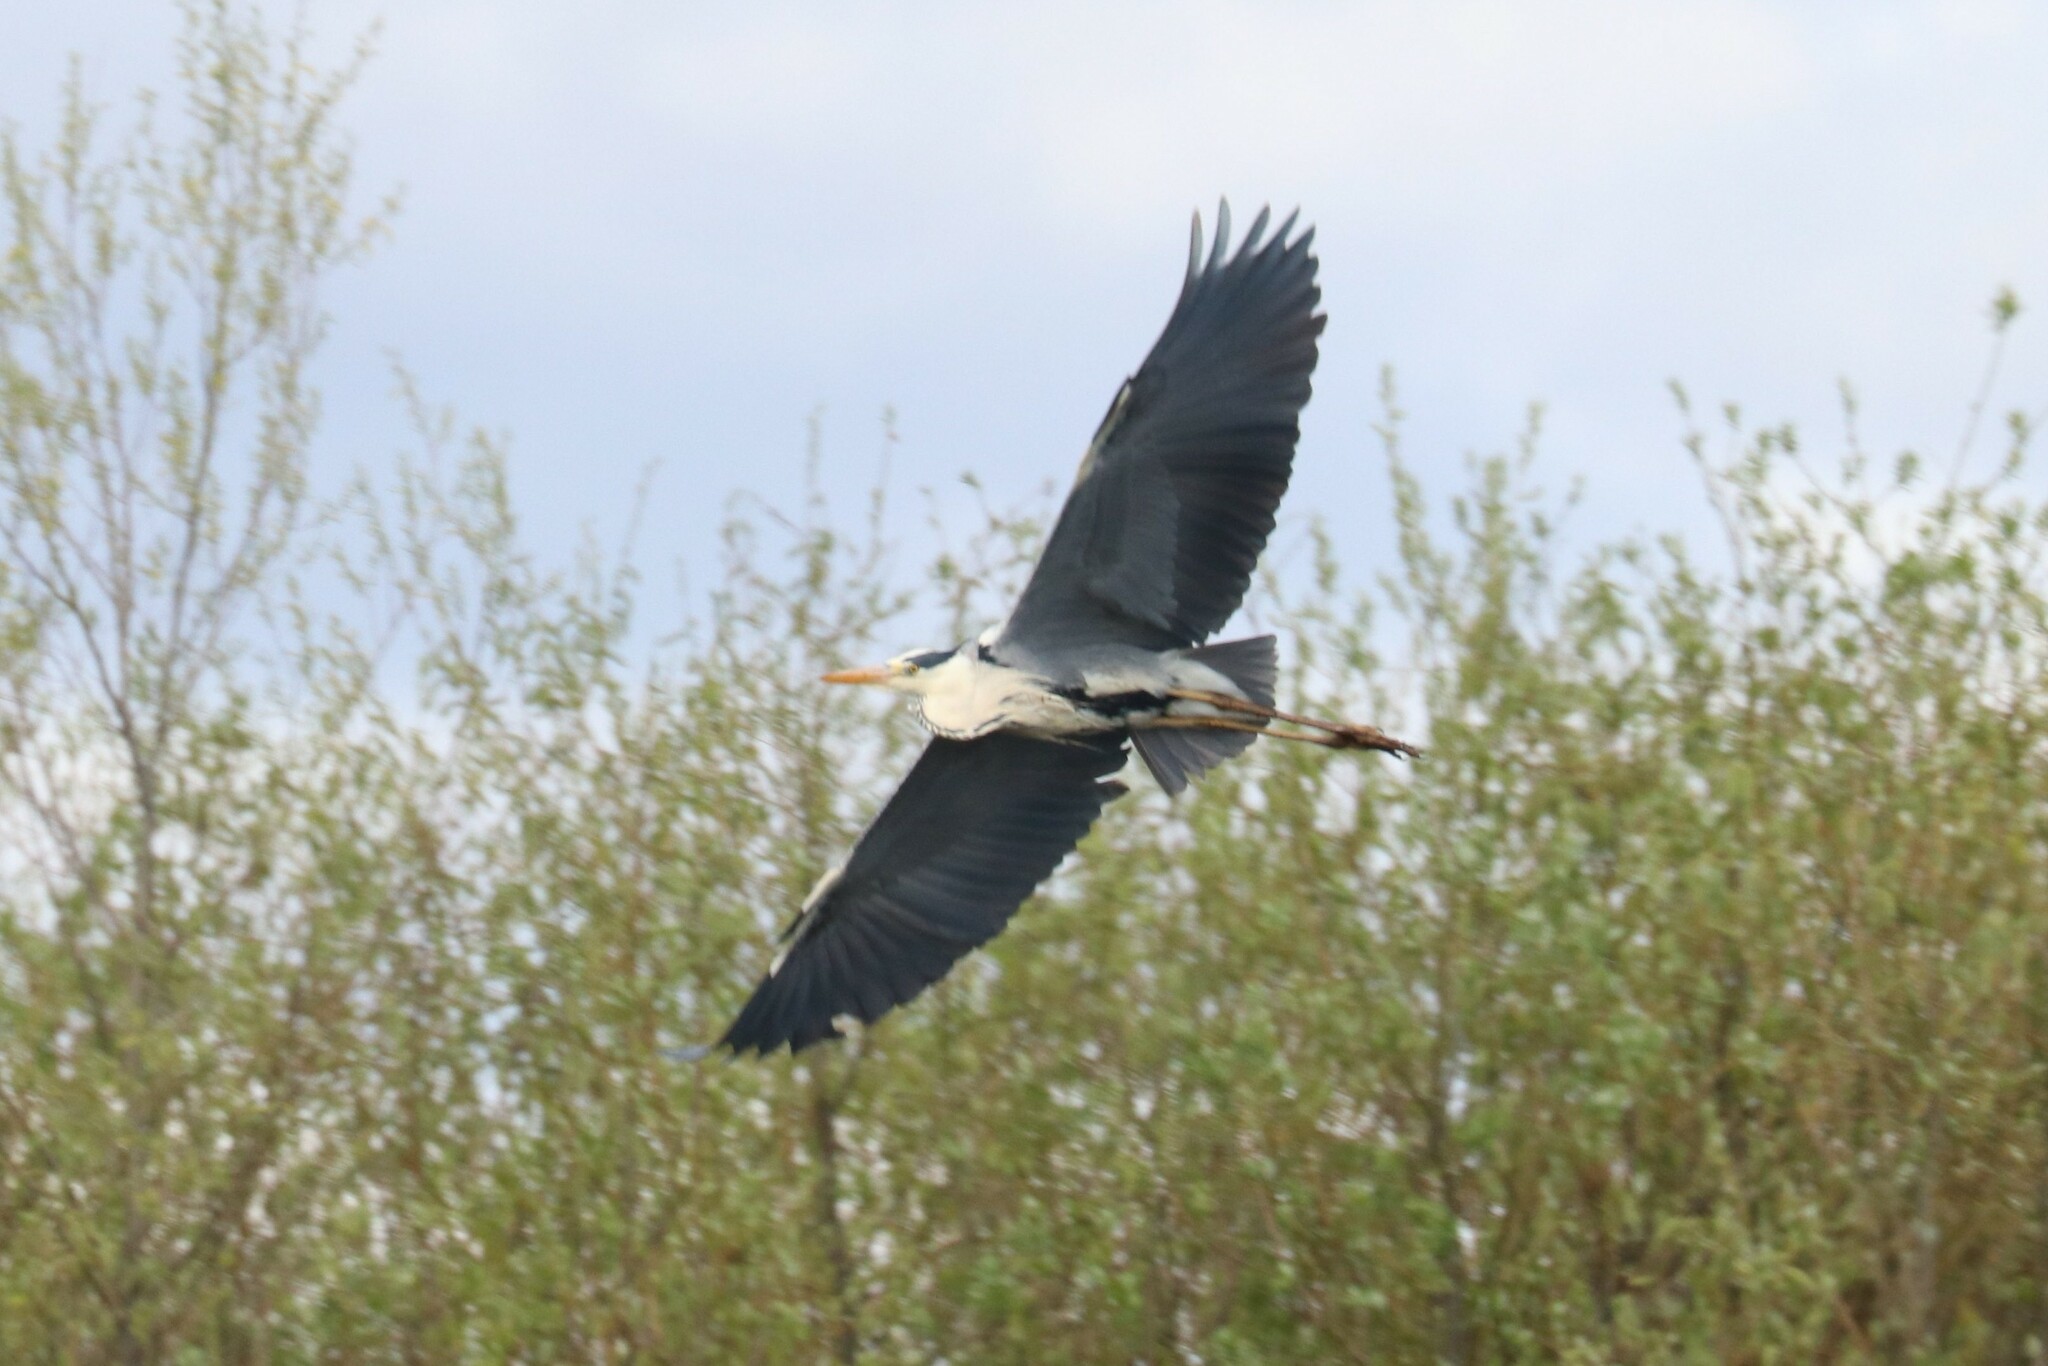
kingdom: Animalia
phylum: Chordata
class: Aves
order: Pelecaniformes
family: Ardeidae
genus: Ardea
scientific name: Ardea cinerea
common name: Grey heron
